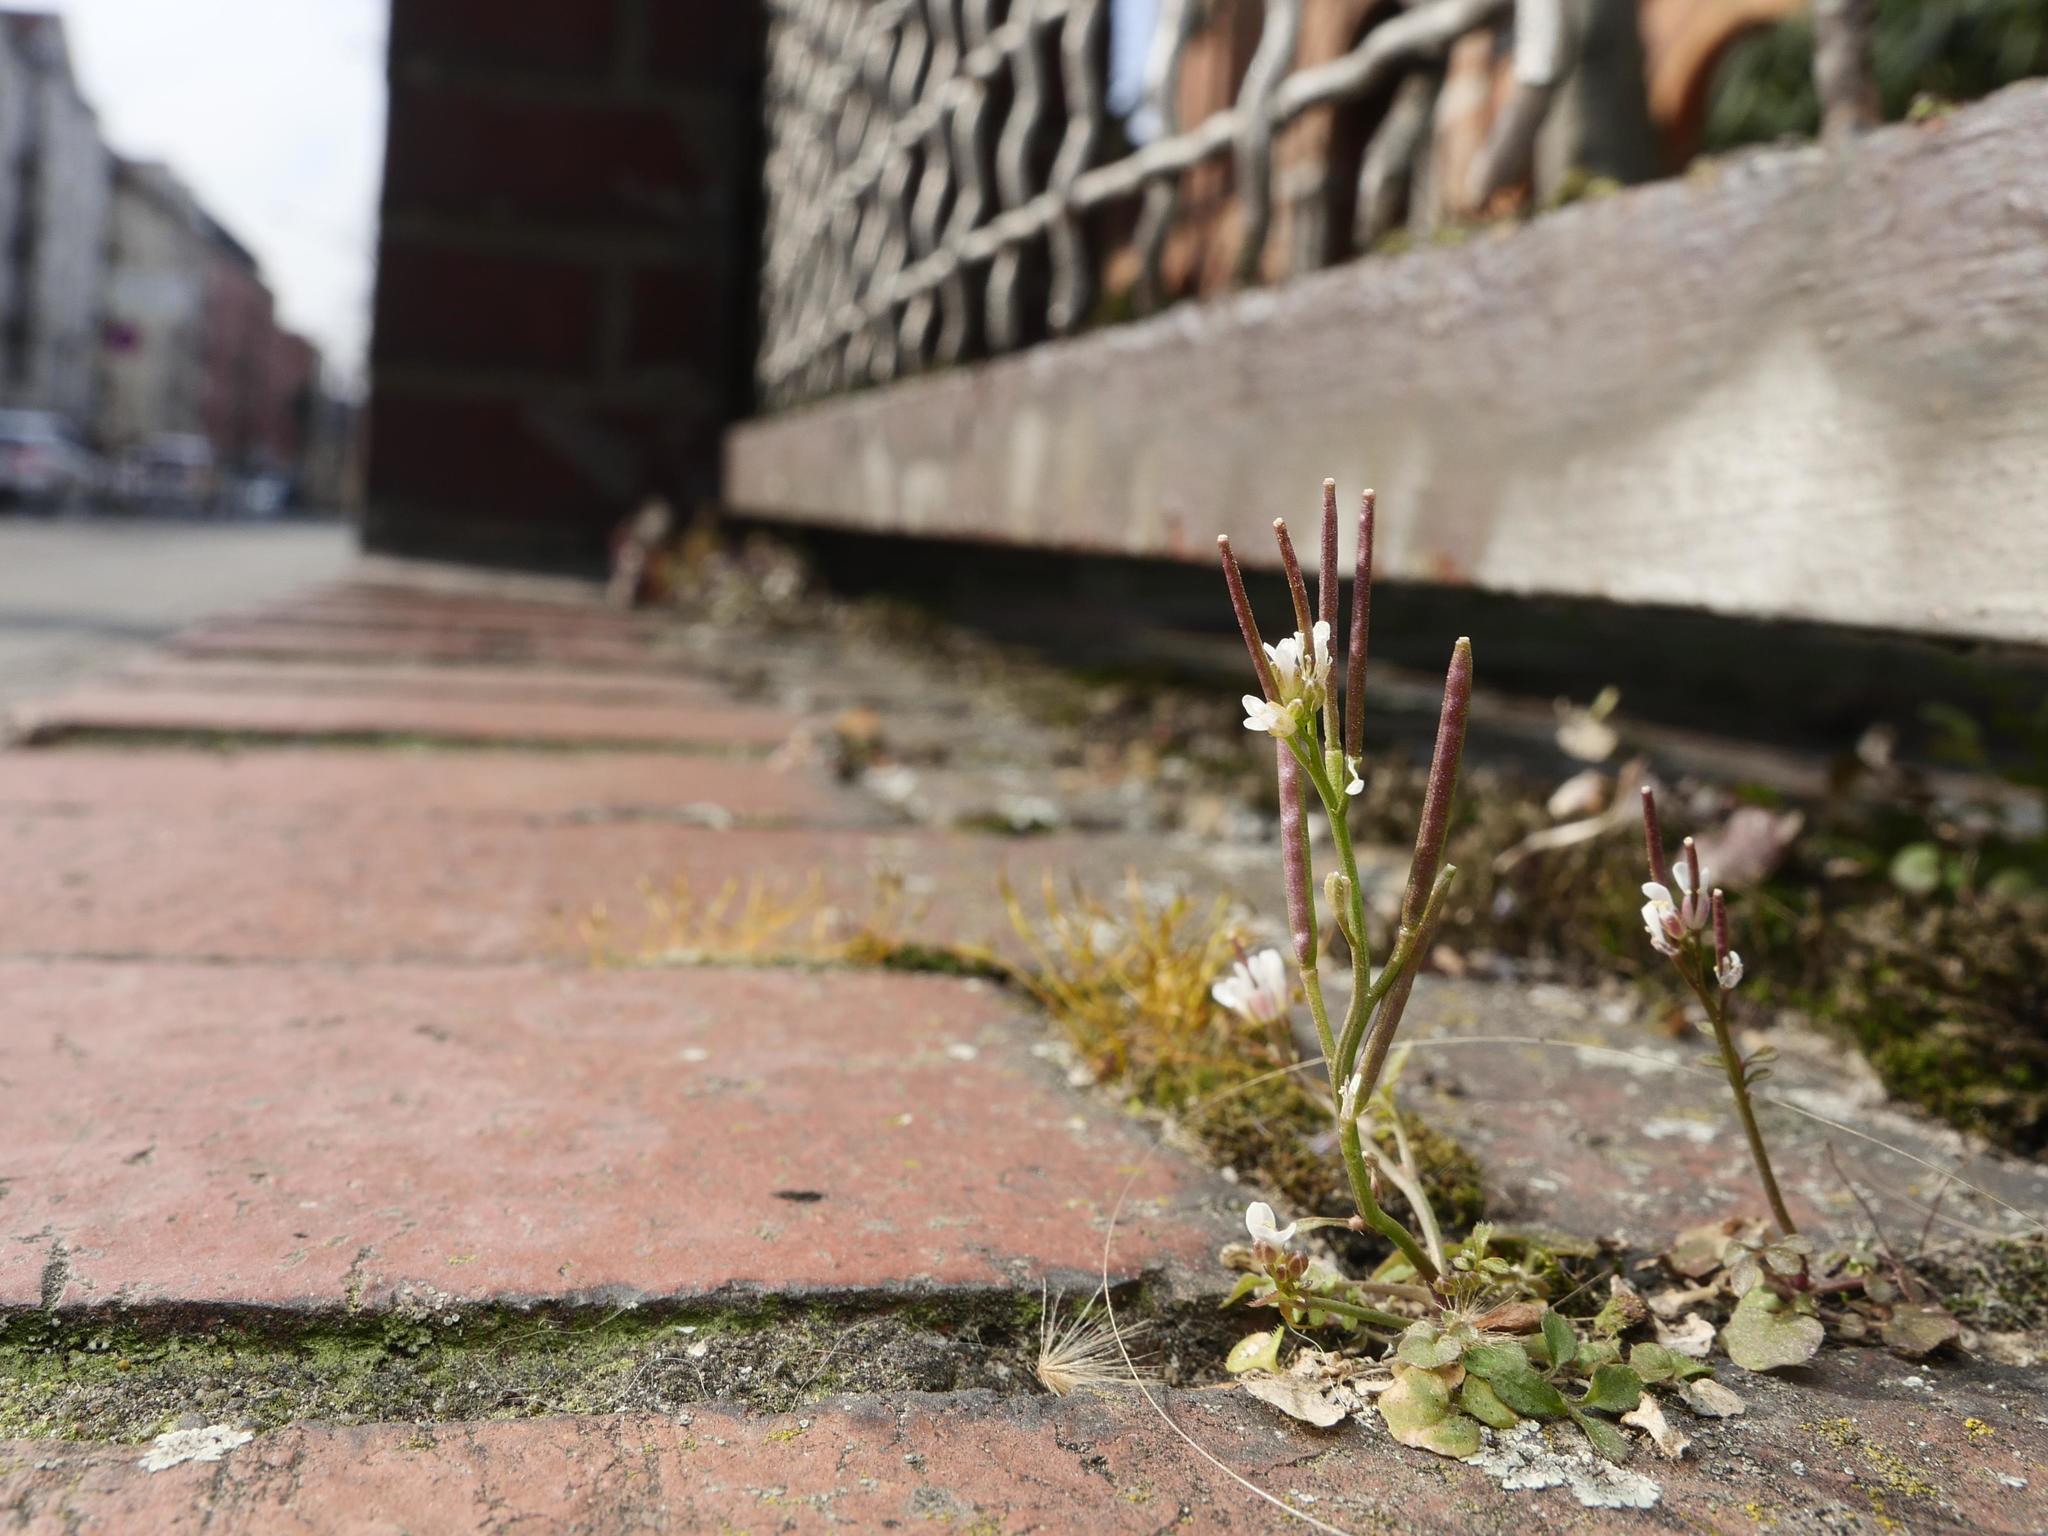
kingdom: Plantae
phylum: Tracheophyta
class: Magnoliopsida
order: Brassicales
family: Brassicaceae
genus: Cardamine
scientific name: Cardamine hirsuta
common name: Hairy bittercress
